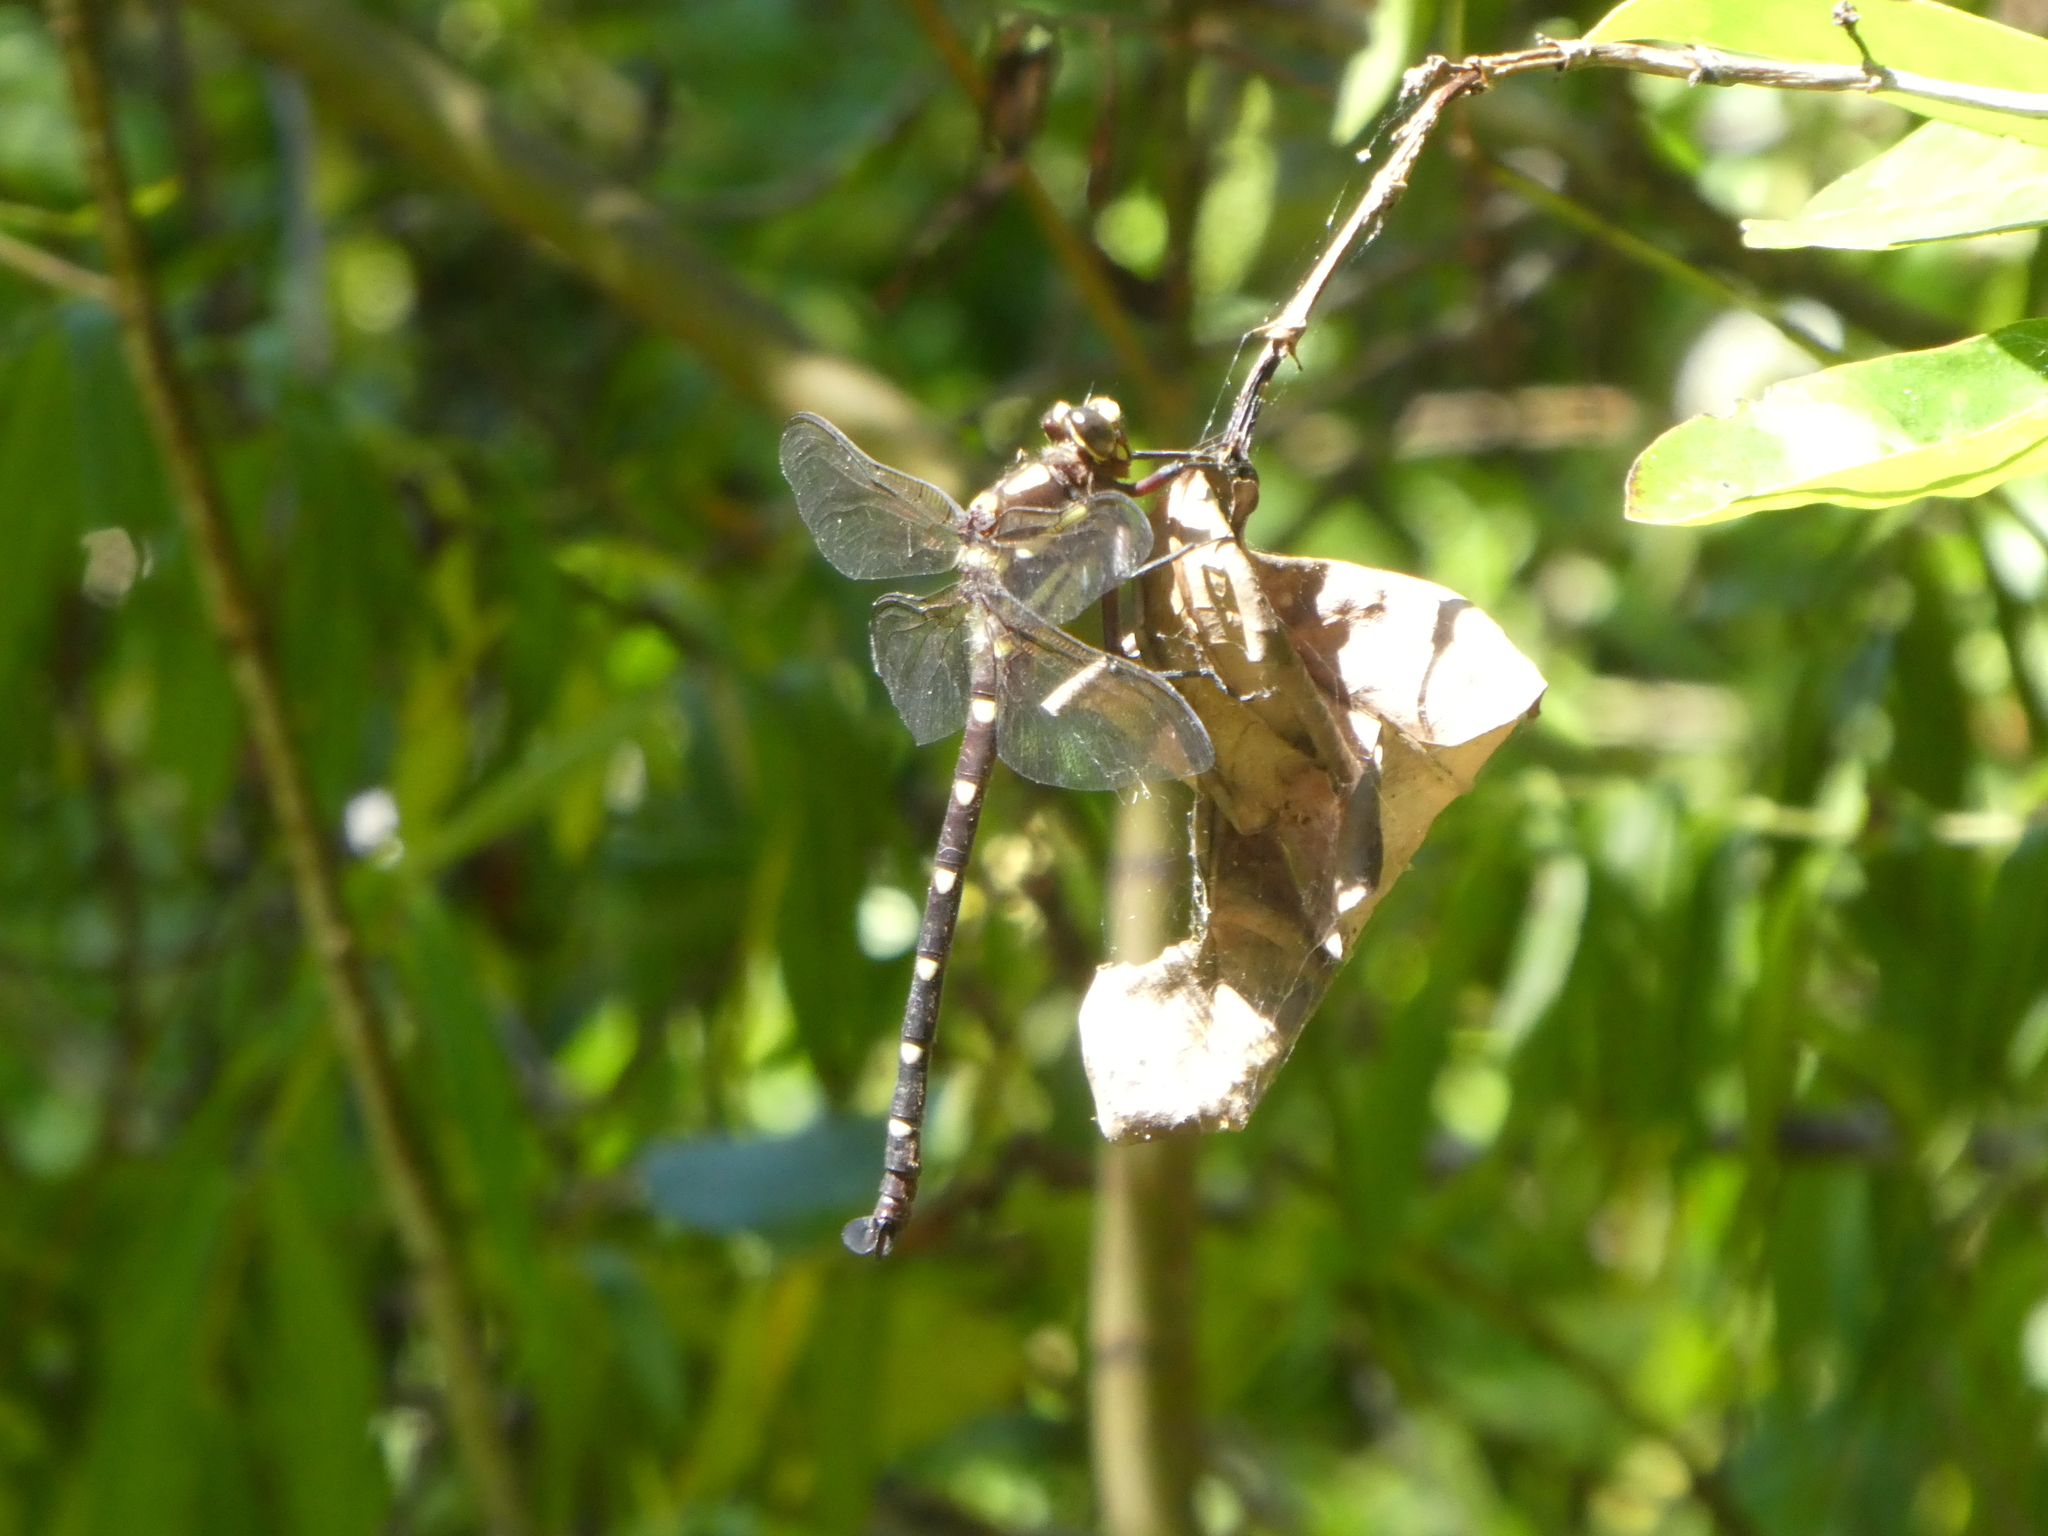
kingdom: Animalia
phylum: Arthropoda
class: Insecta
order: Odonata
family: Petaluridae
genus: Uropetala
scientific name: Uropetala carovei
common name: Bush giant dragonfly
